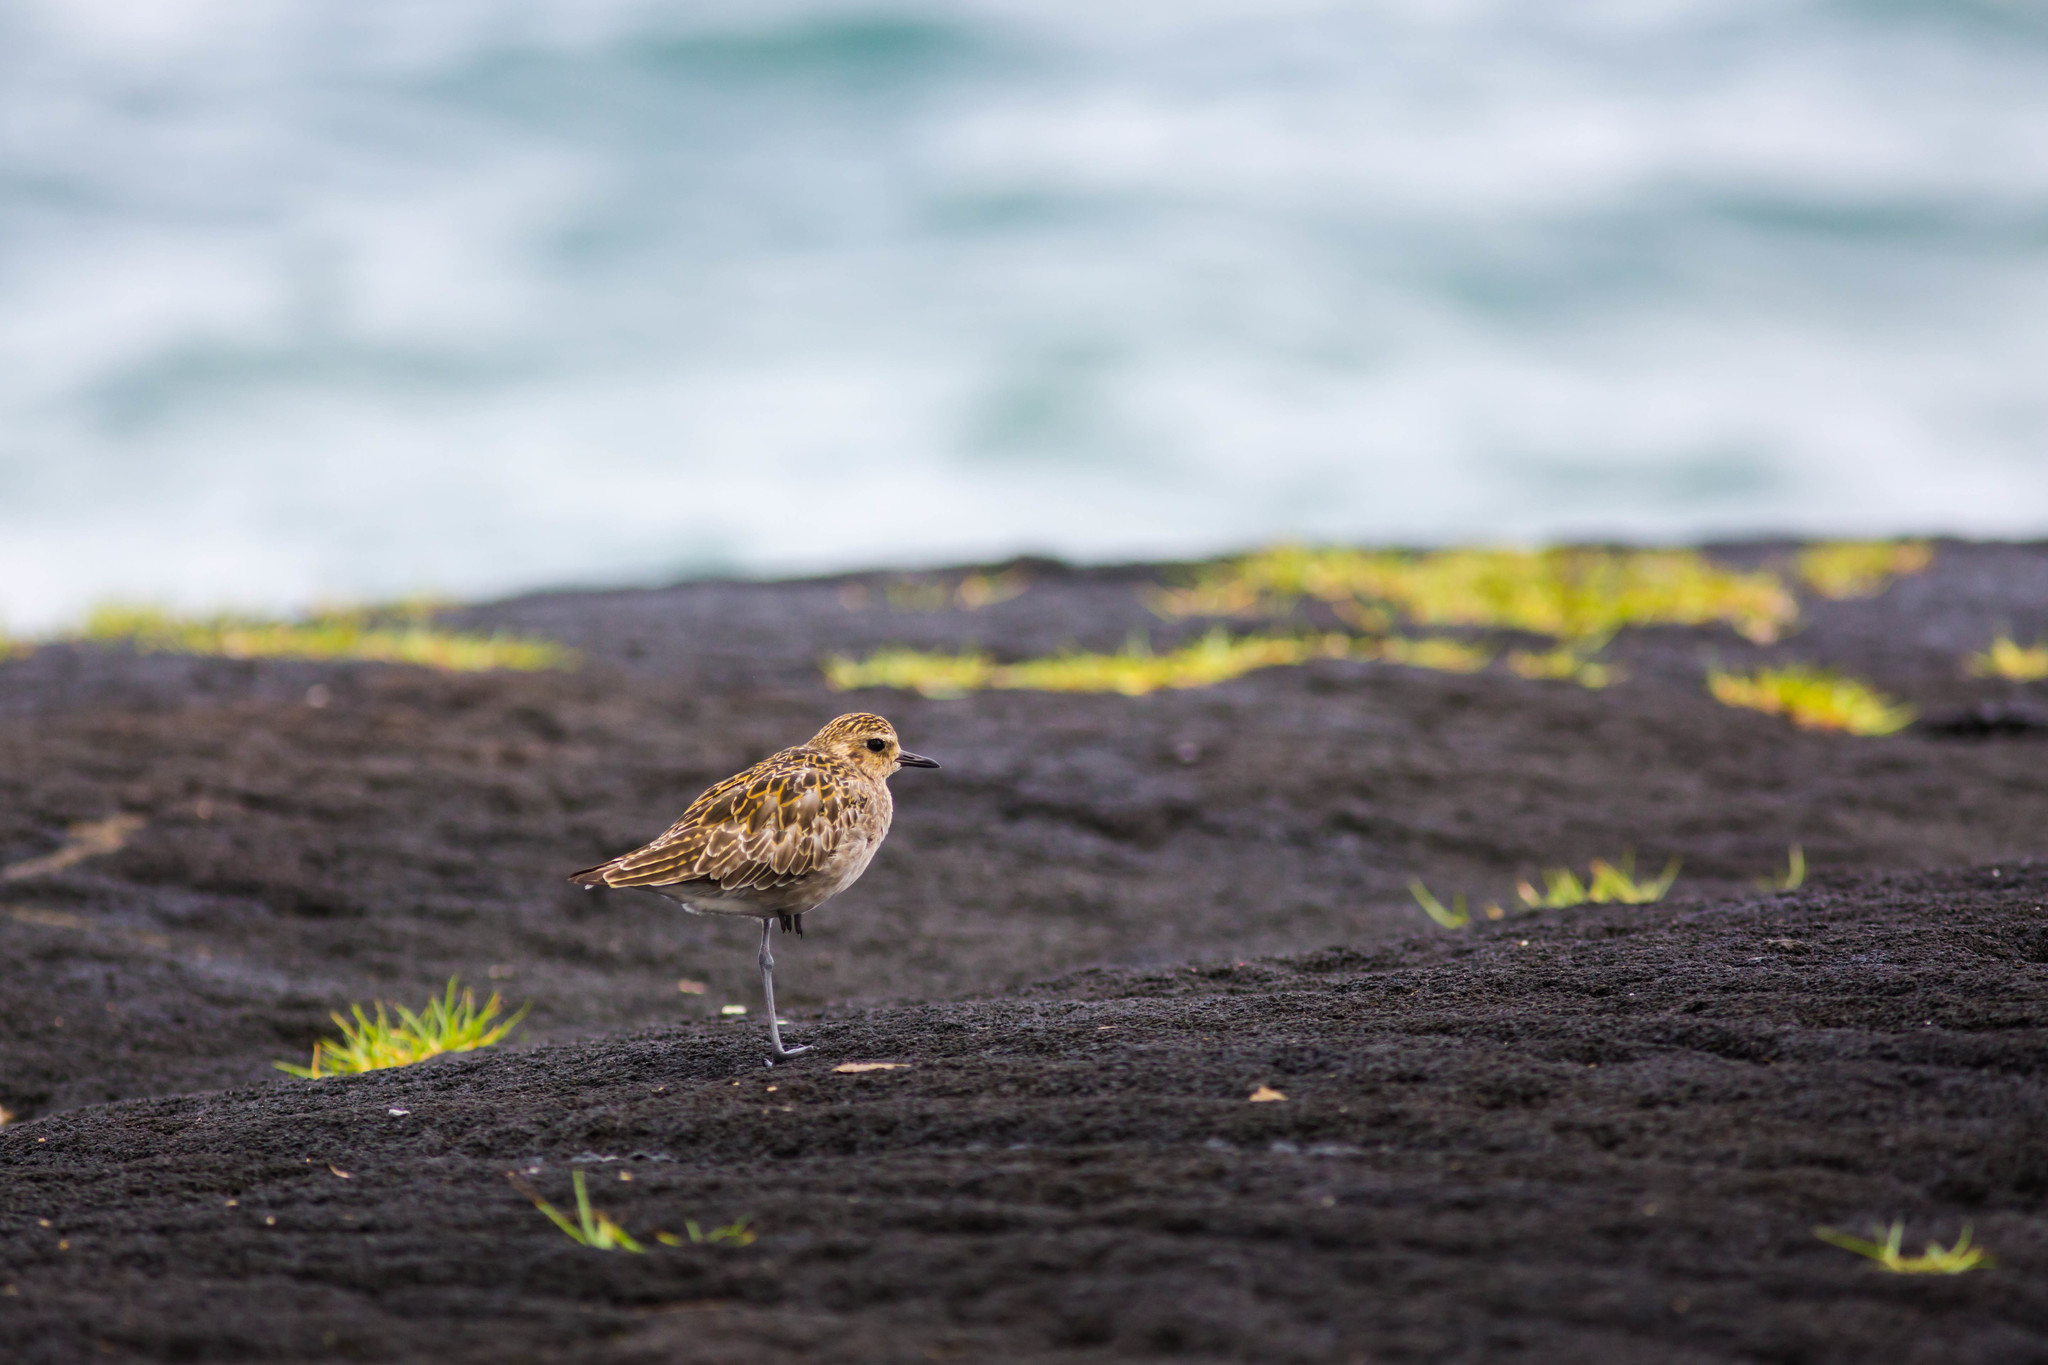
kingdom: Animalia
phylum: Chordata
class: Aves
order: Charadriiformes
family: Charadriidae
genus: Pluvialis
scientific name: Pluvialis fulva
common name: Pacific golden plover
